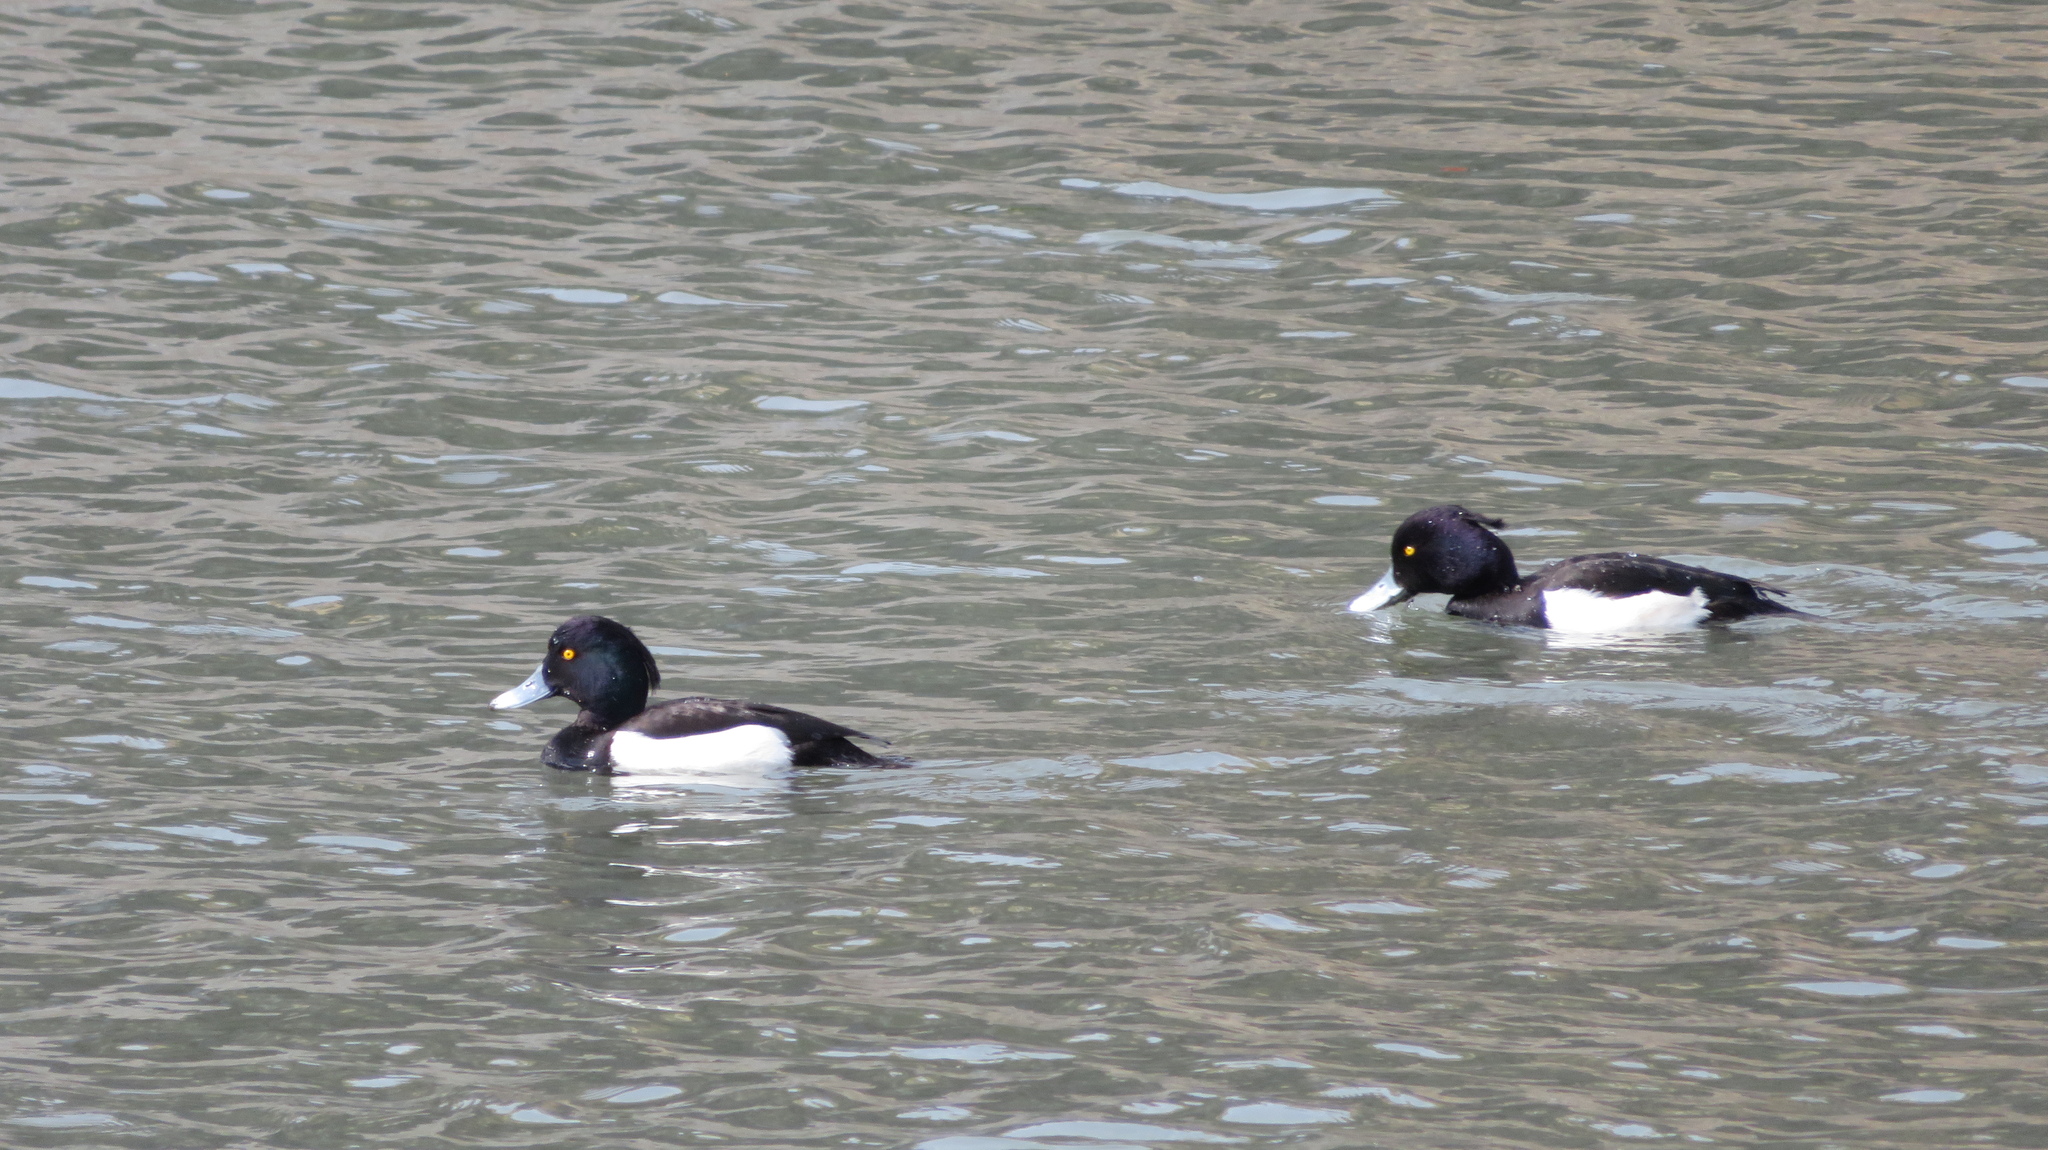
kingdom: Animalia
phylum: Chordata
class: Aves
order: Anseriformes
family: Anatidae
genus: Aythya
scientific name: Aythya fuligula
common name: Tufted duck
